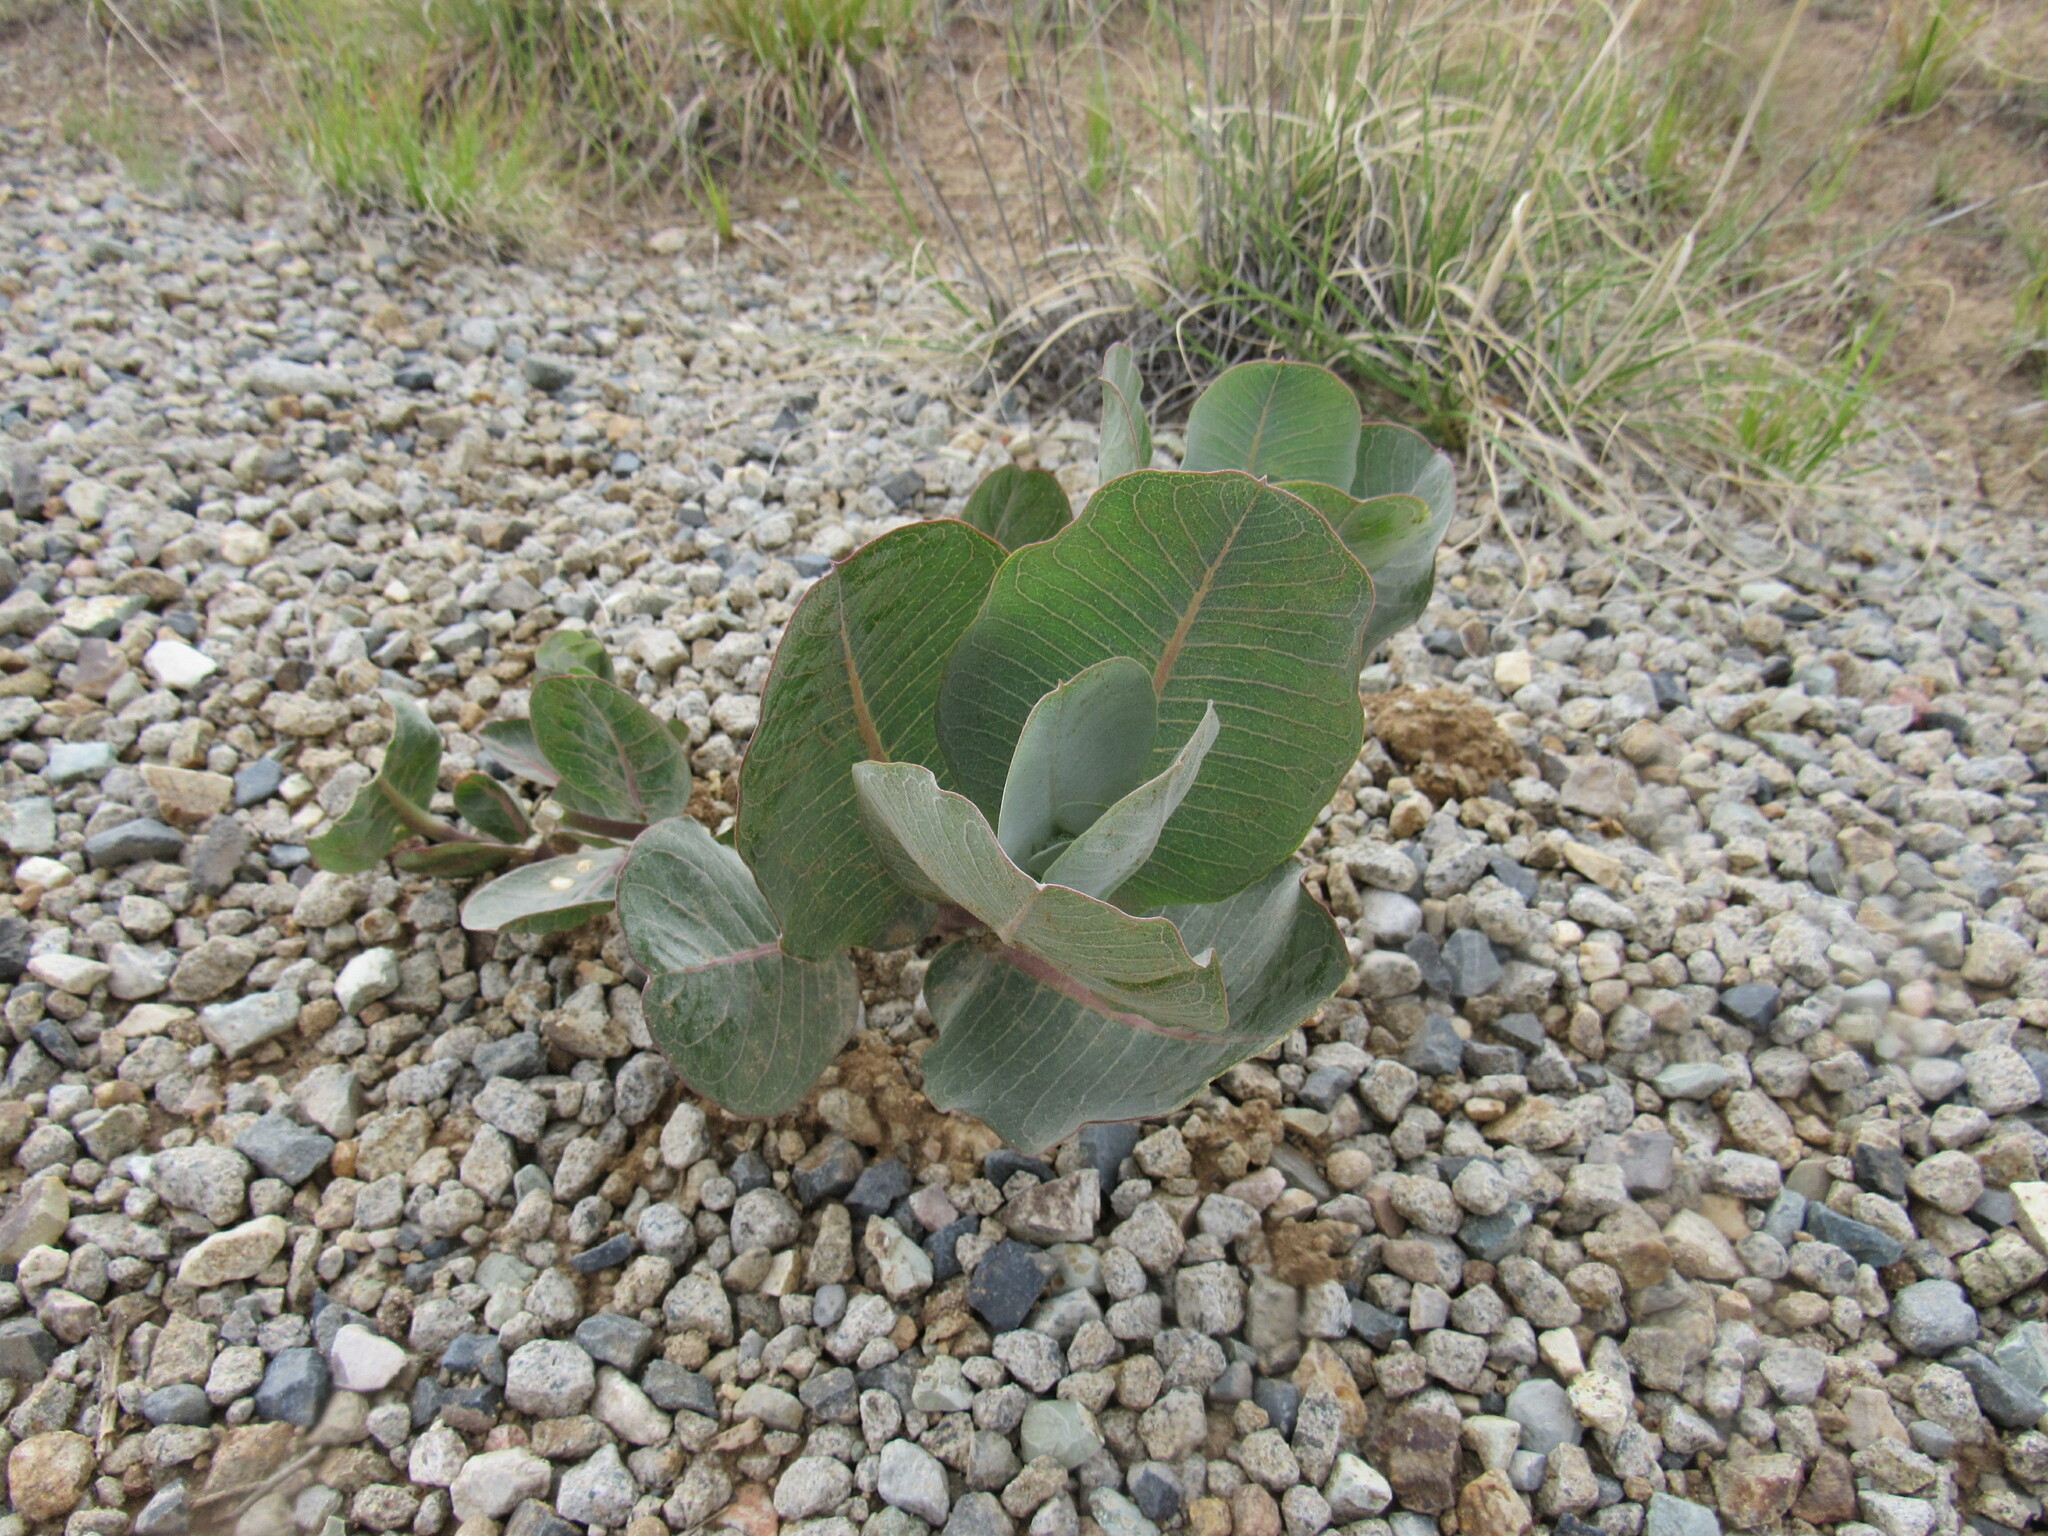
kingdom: Plantae
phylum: Tracheophyta
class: Magnoliopsida
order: Gentianales
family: Apocynaceae
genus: Asclepias
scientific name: Asclepias latifolia
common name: Broadleaf milkweed
